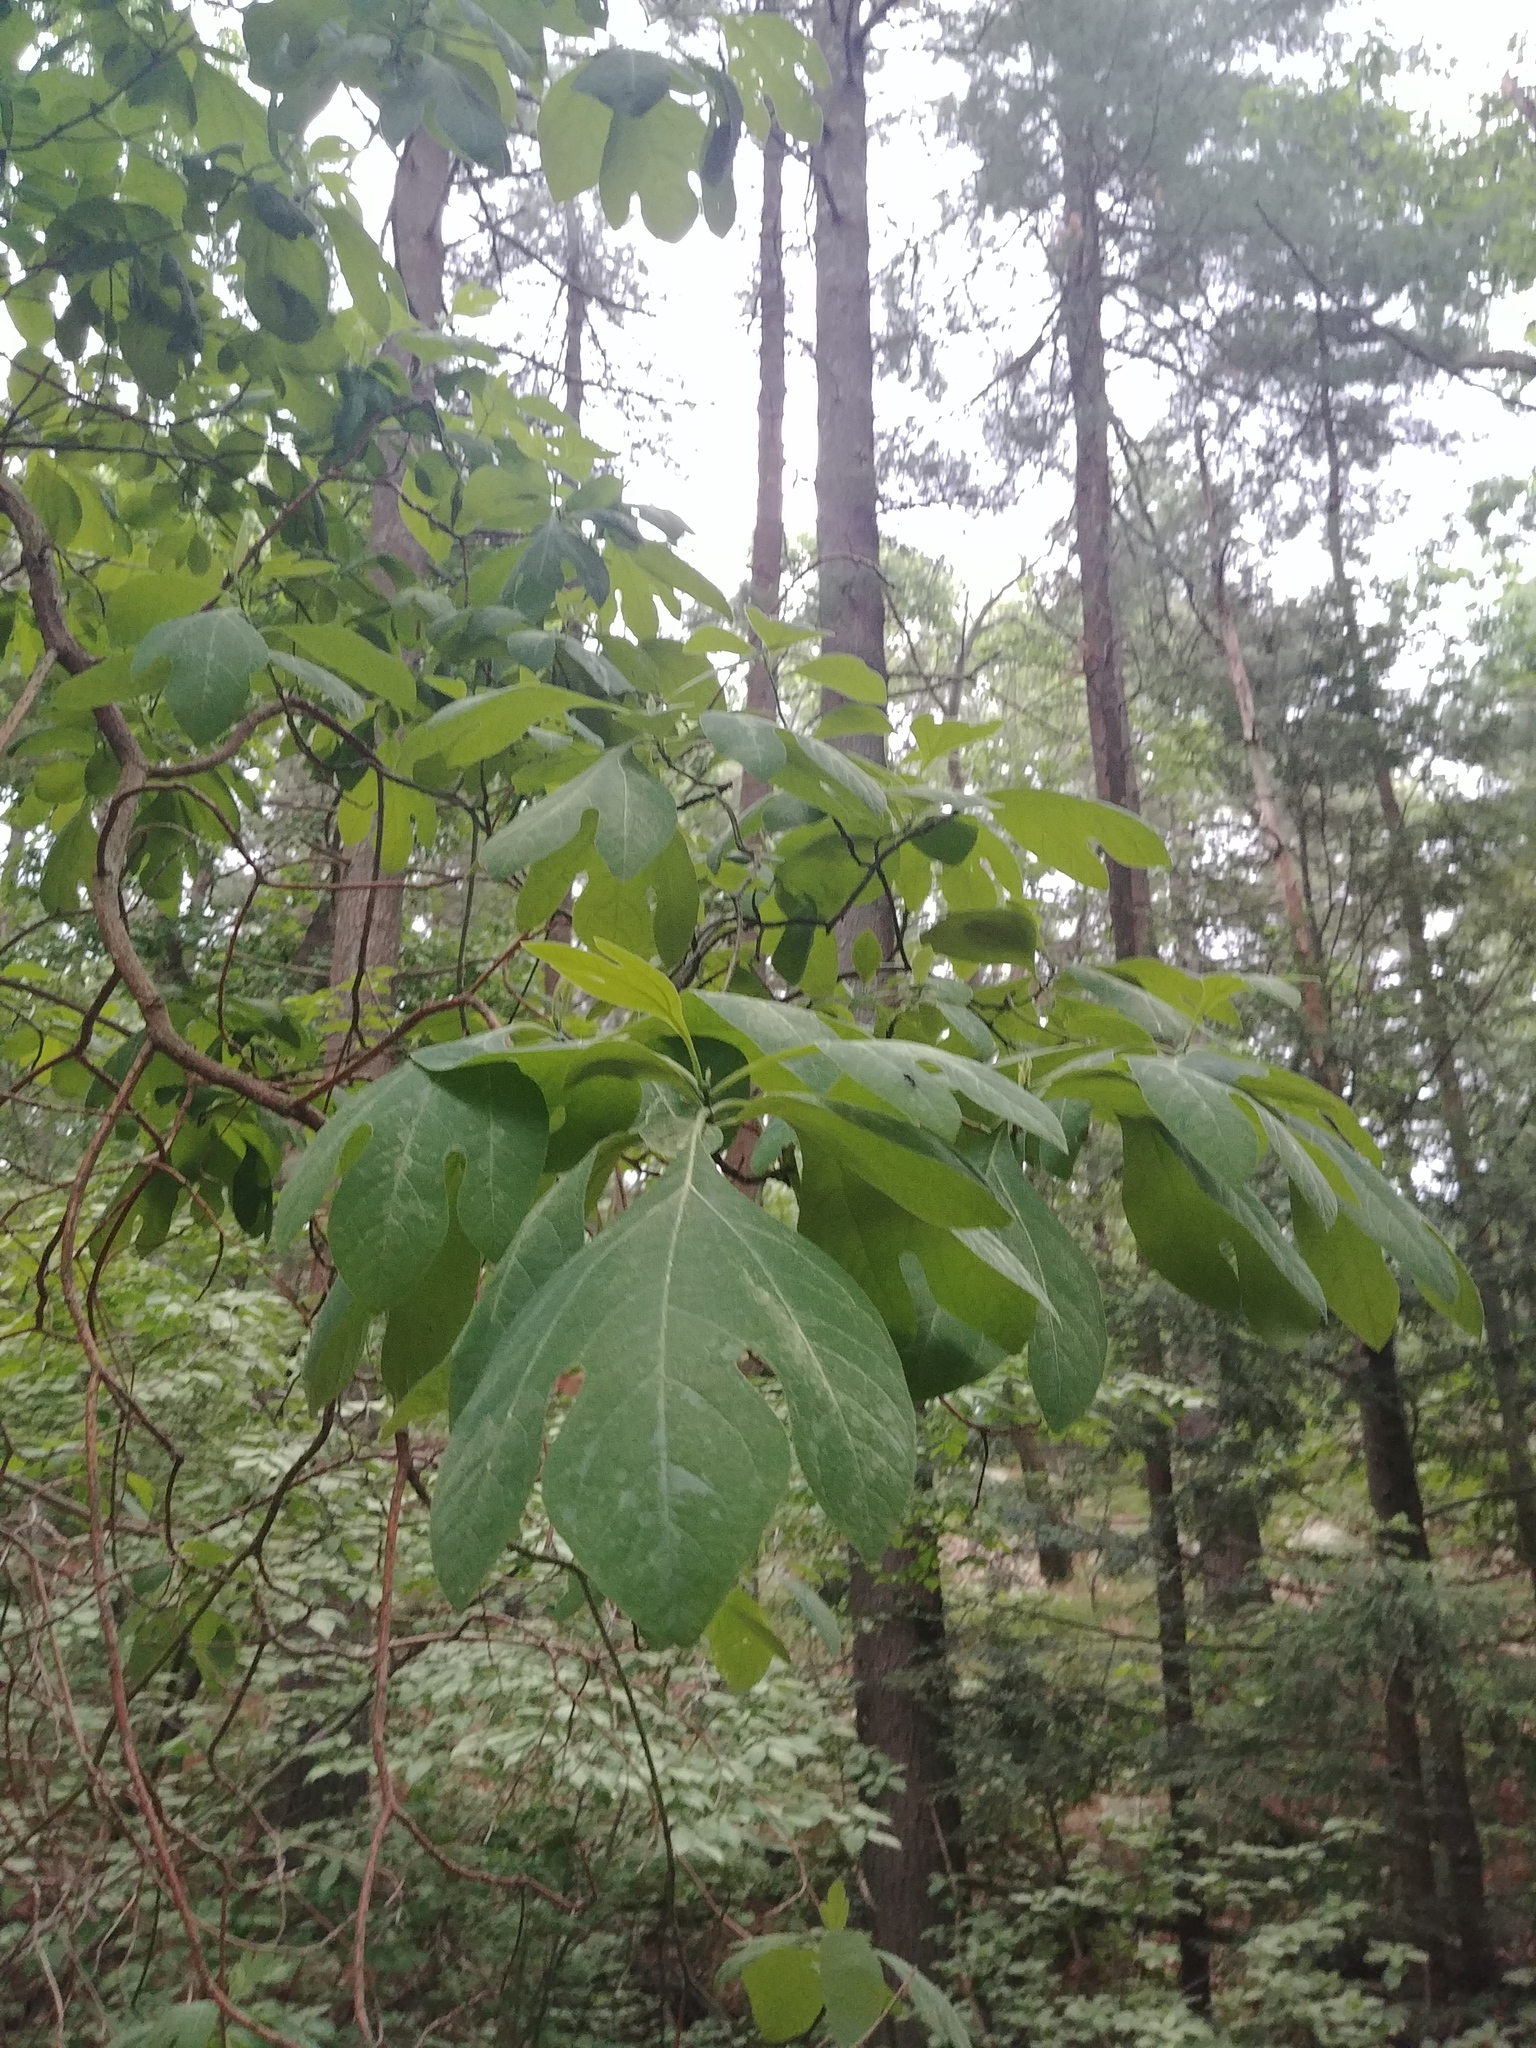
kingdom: Plantae
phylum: Tracheophyta
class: Magnoliopsida
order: Laurales
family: Lauraceae
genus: Sassafras
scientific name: Sassafras albidum
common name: Sassafras
